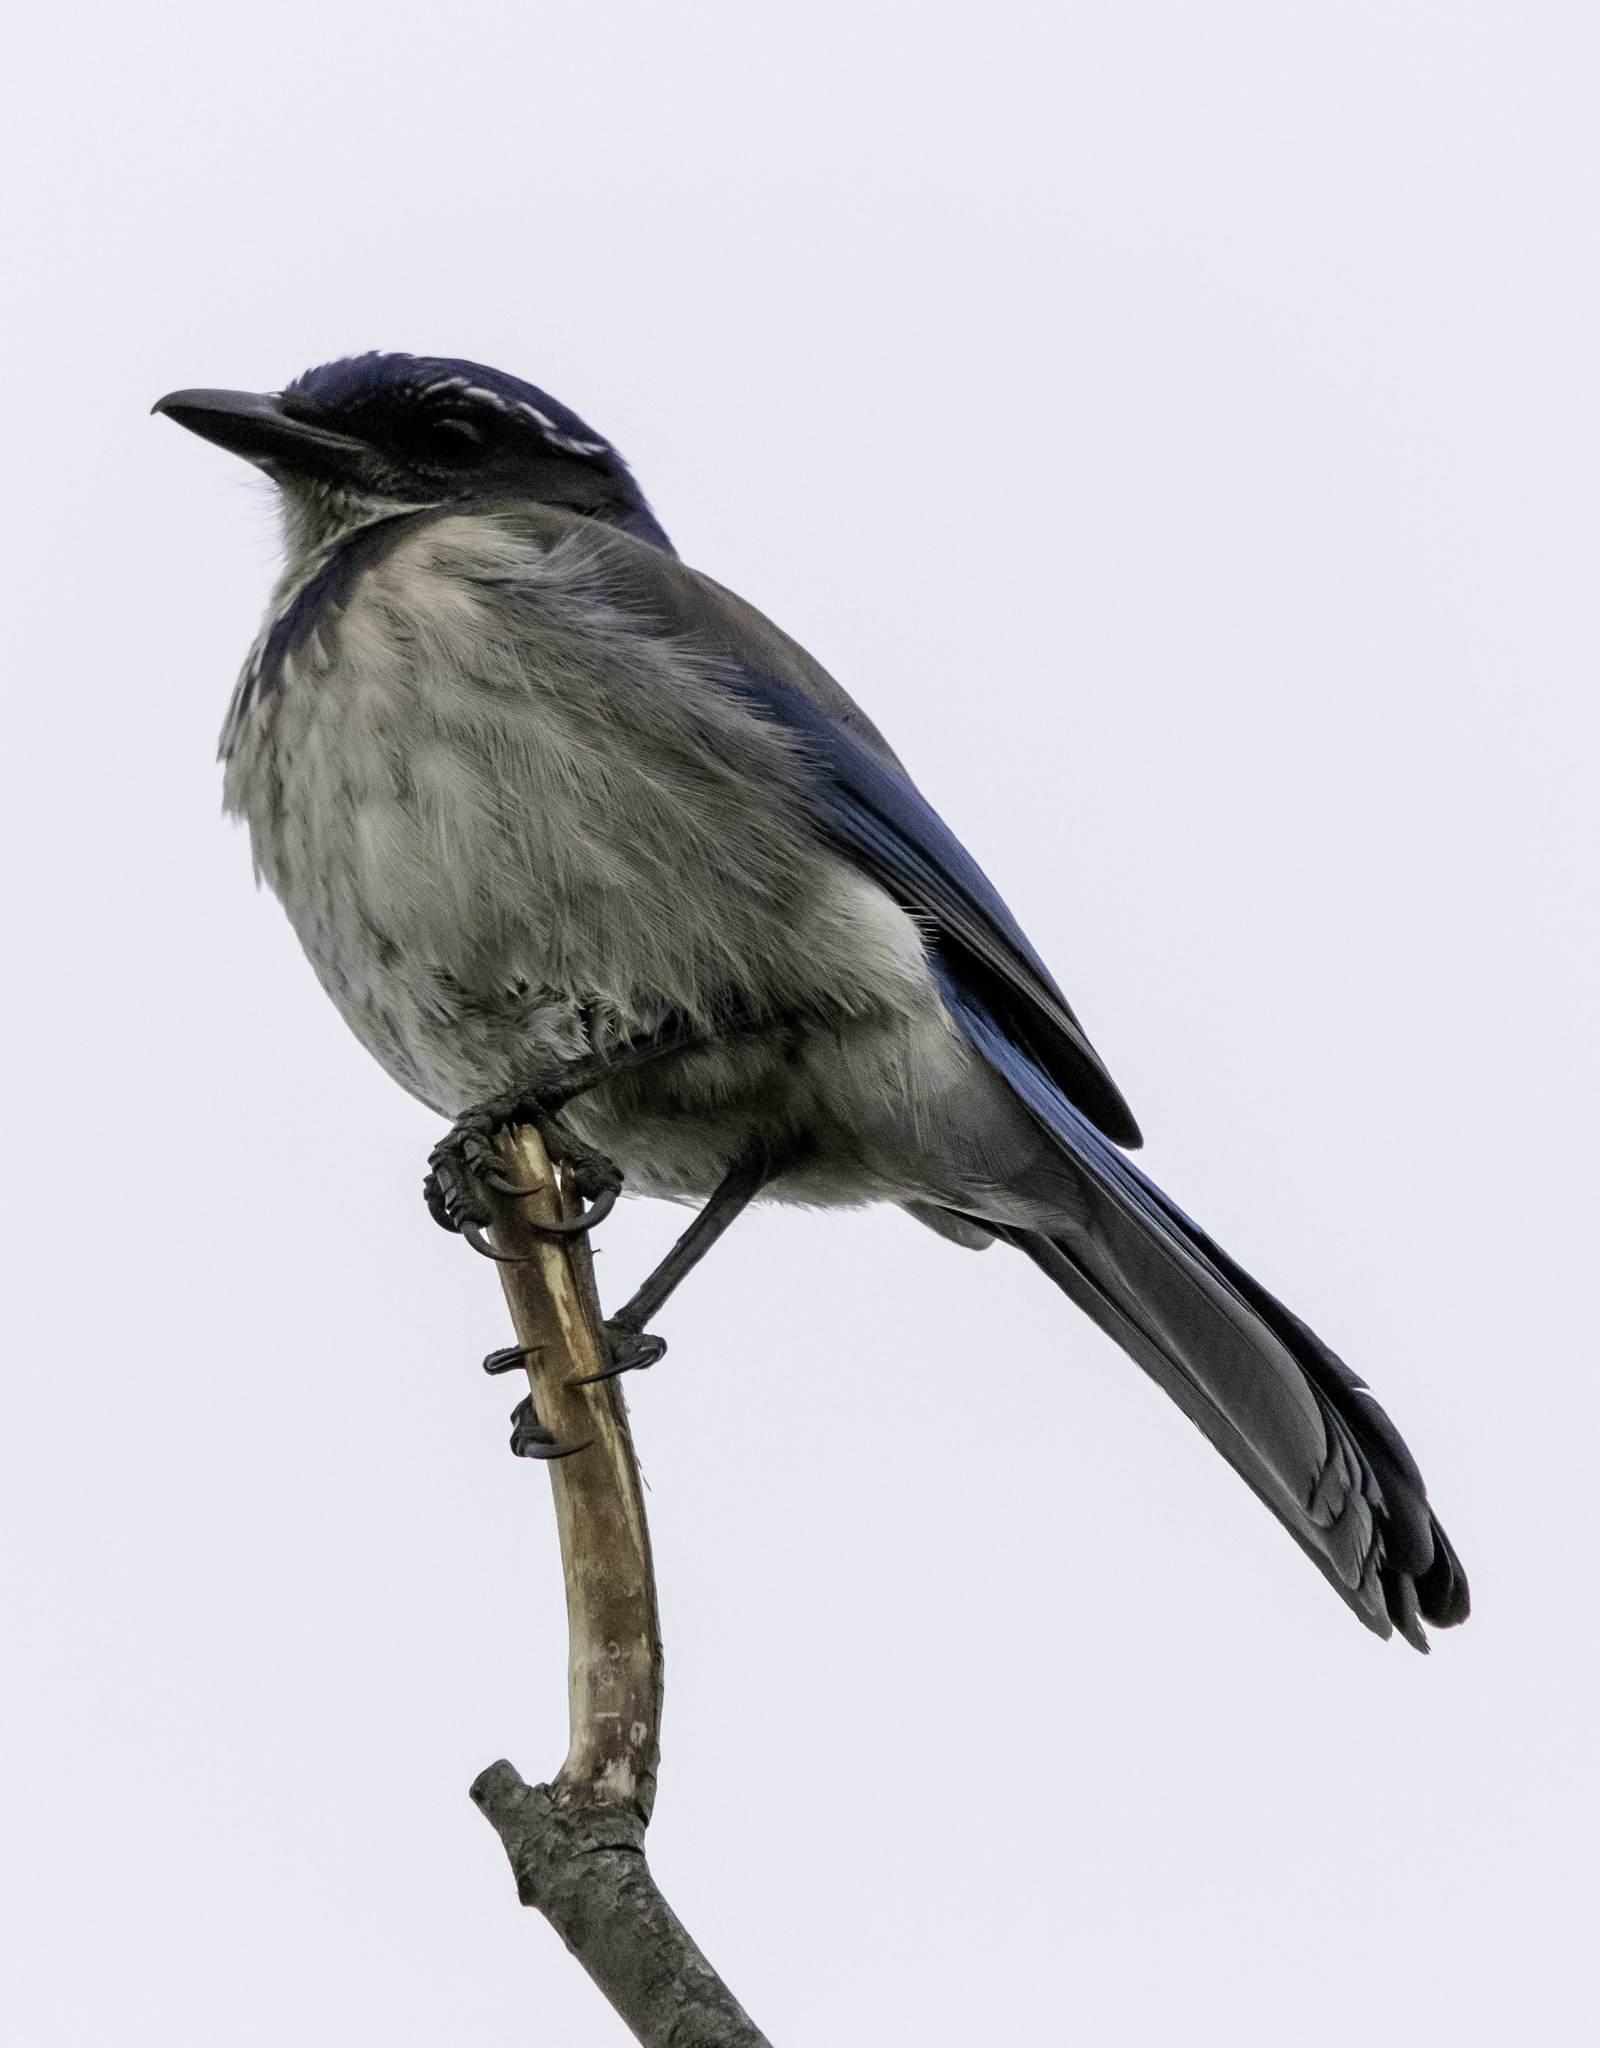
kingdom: Animalia
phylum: Chordata
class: Aves
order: Passeriformes
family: Corvidae
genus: Aphelocoma
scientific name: Aphelocoma californica
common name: California scrub-jay
